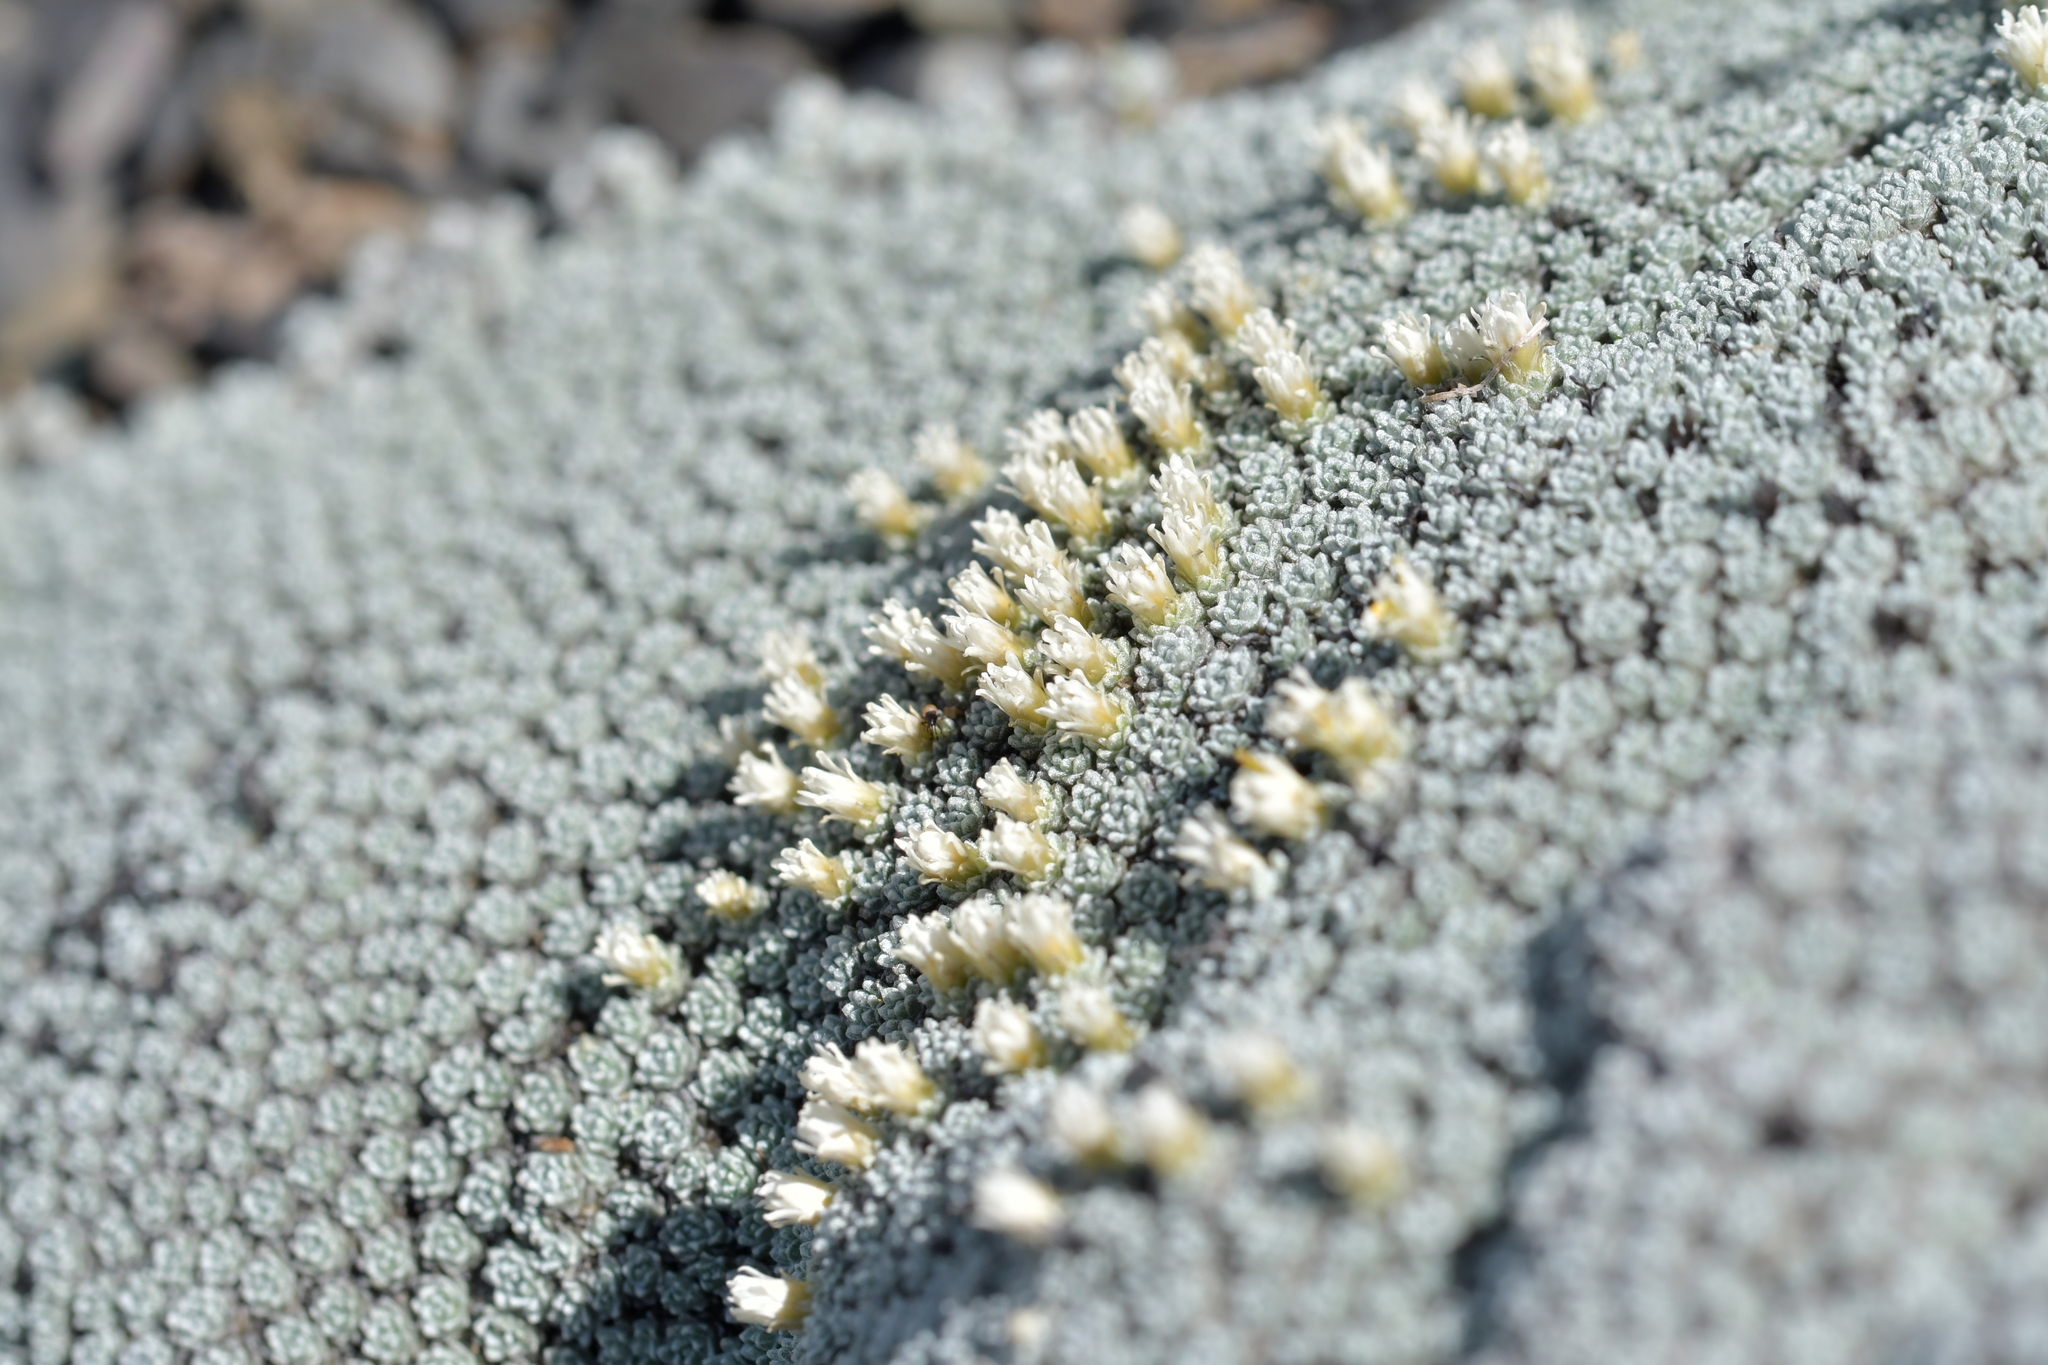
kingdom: Plantae
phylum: Tracheophyta
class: Magnoliopsida
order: Asterales
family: Asteraceae
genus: Raoulia
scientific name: Raoulia bryoides
